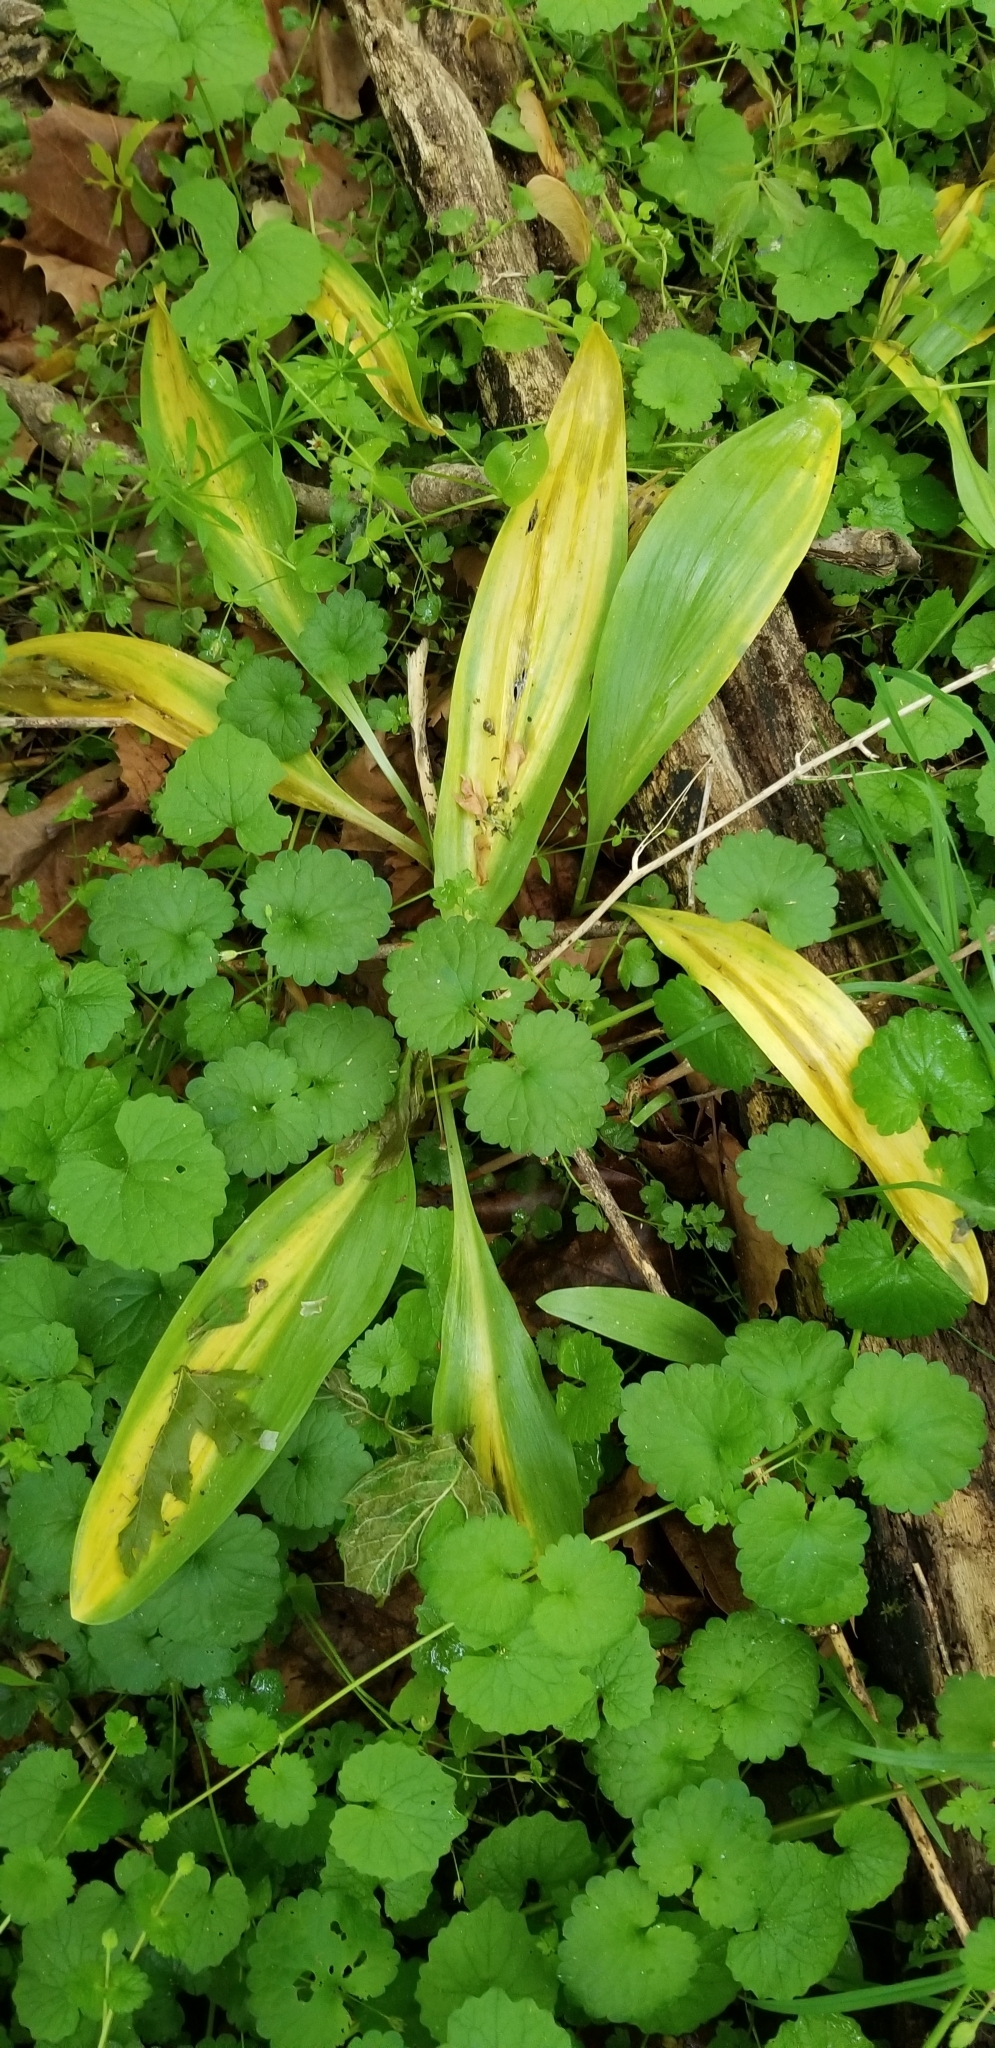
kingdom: Plantae
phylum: Tracheophyta
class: Liliopsida
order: Asparagales
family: Amaryllidaceae
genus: Allium
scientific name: Allium tricoccum
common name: Ramp
